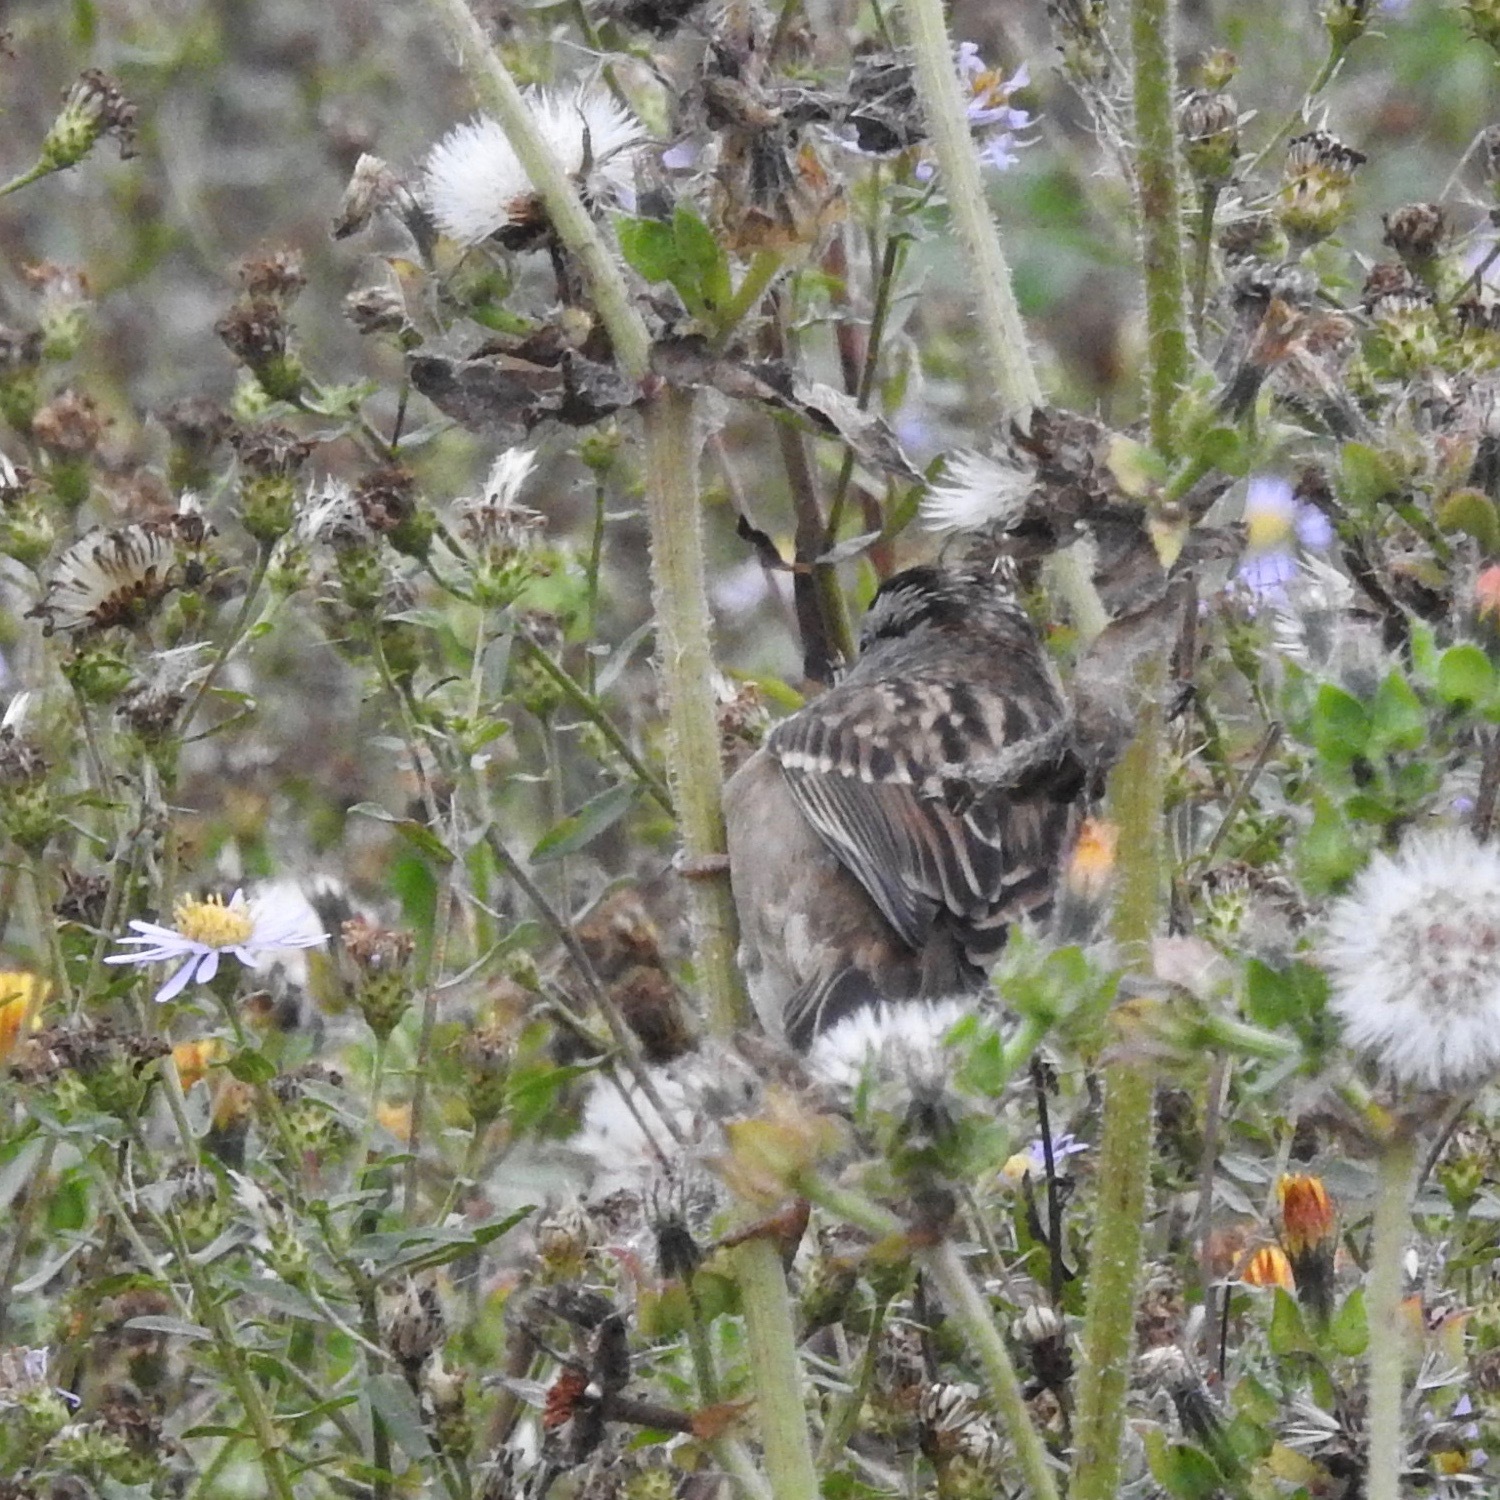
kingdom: Animalia
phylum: Chordata
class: Aves
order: Passeriformes
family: Passerellidae
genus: Zonotrichia
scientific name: Zonotrichia leucophrys
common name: White-crowned sparrow
